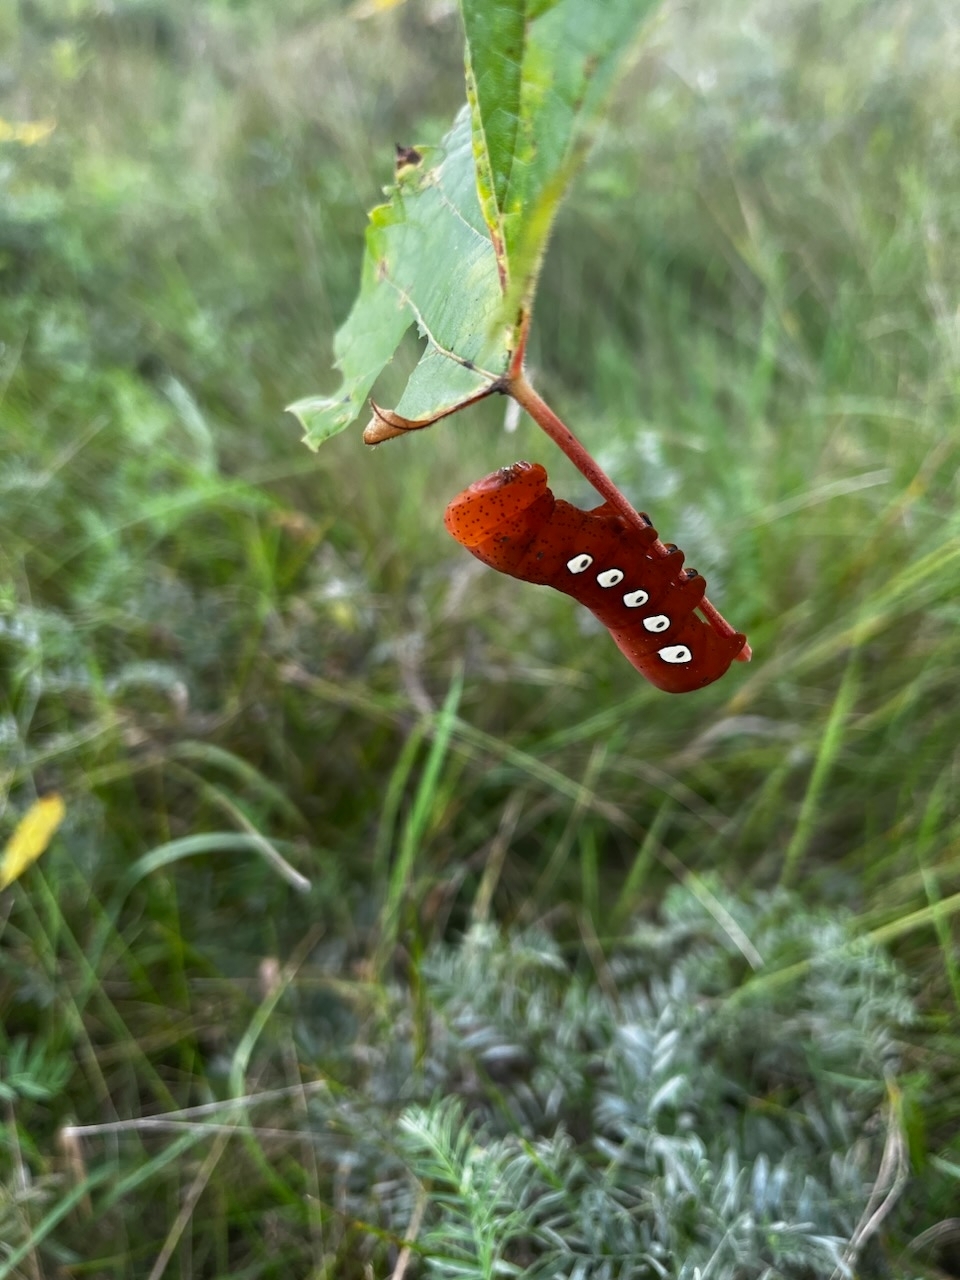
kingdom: Animalia
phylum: Arthropoda
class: Insecta
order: Lepidoptera
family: Sphingidae
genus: Eumorpha
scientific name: Eumorpha pandorus
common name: Pandora sphinx
